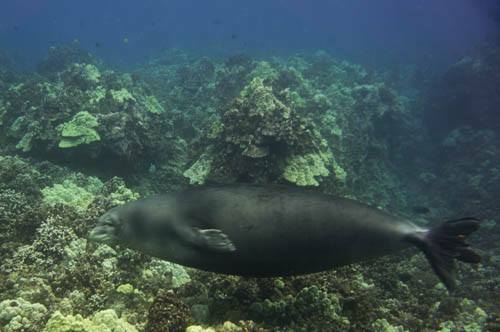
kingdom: Animalia
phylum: Chordata
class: Mammalia
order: Carnivora
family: Phocidae
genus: Neomonachus
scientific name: Neomonachus schauinslandi
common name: Hawaiian monk seal
